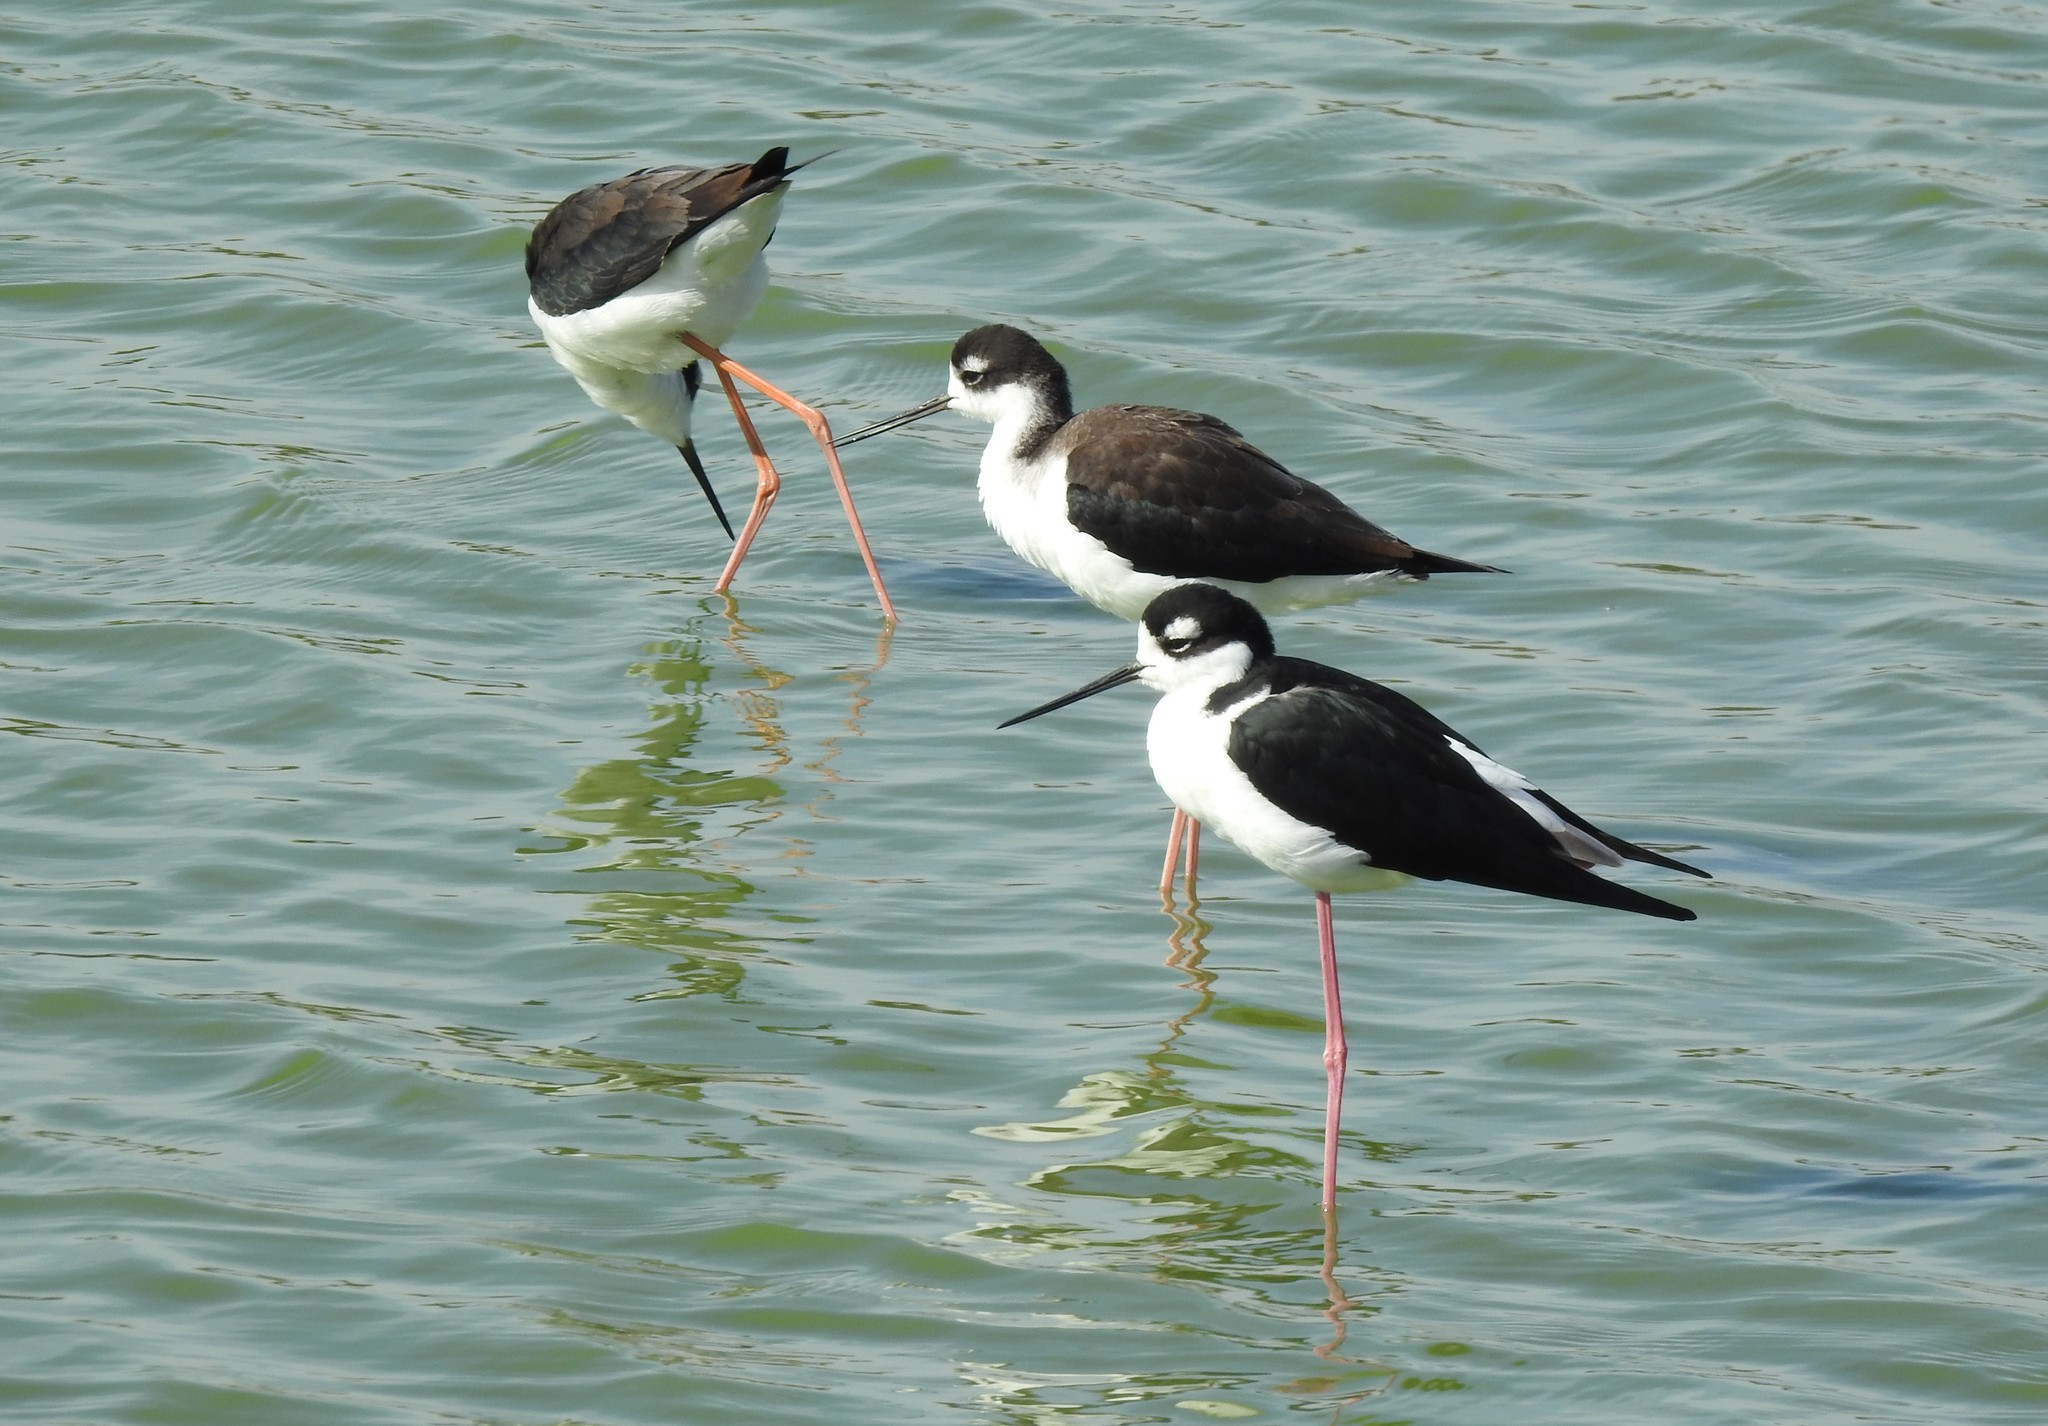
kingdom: Animalia
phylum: Chordata
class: Aves
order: Charadriiformes
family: Recurvirostridae
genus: Himantopus
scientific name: Himantopus mexicanus
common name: Black-necked stilt
